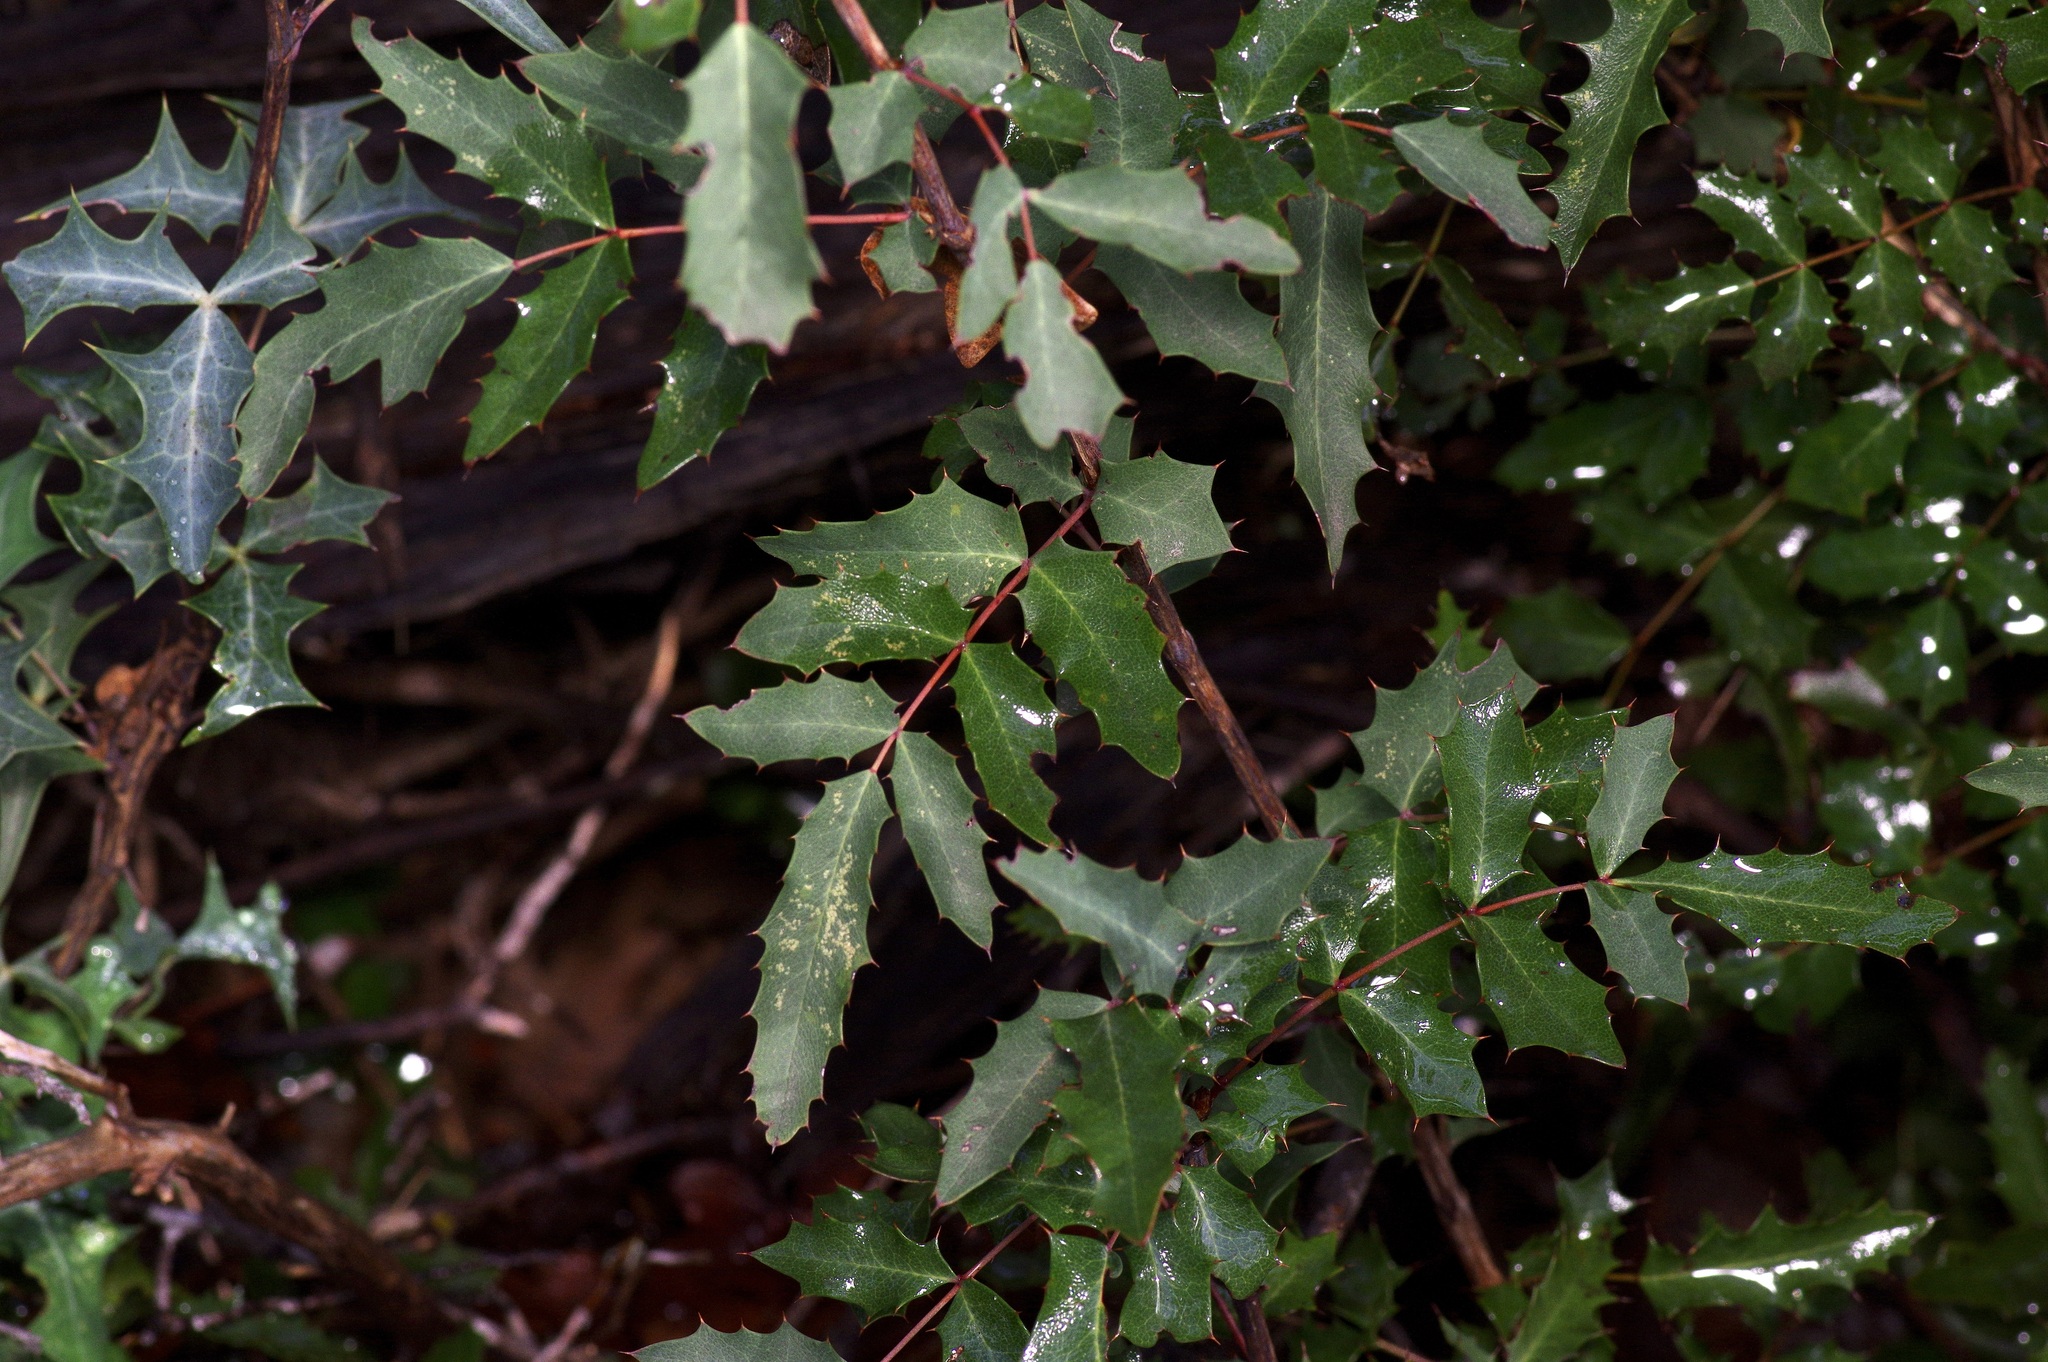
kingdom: Plantae
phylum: Tracheophyta
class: Magnoliopsida
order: Ranunculales
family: Berberidaceae
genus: Berberis
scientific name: Berberis swaseyi
